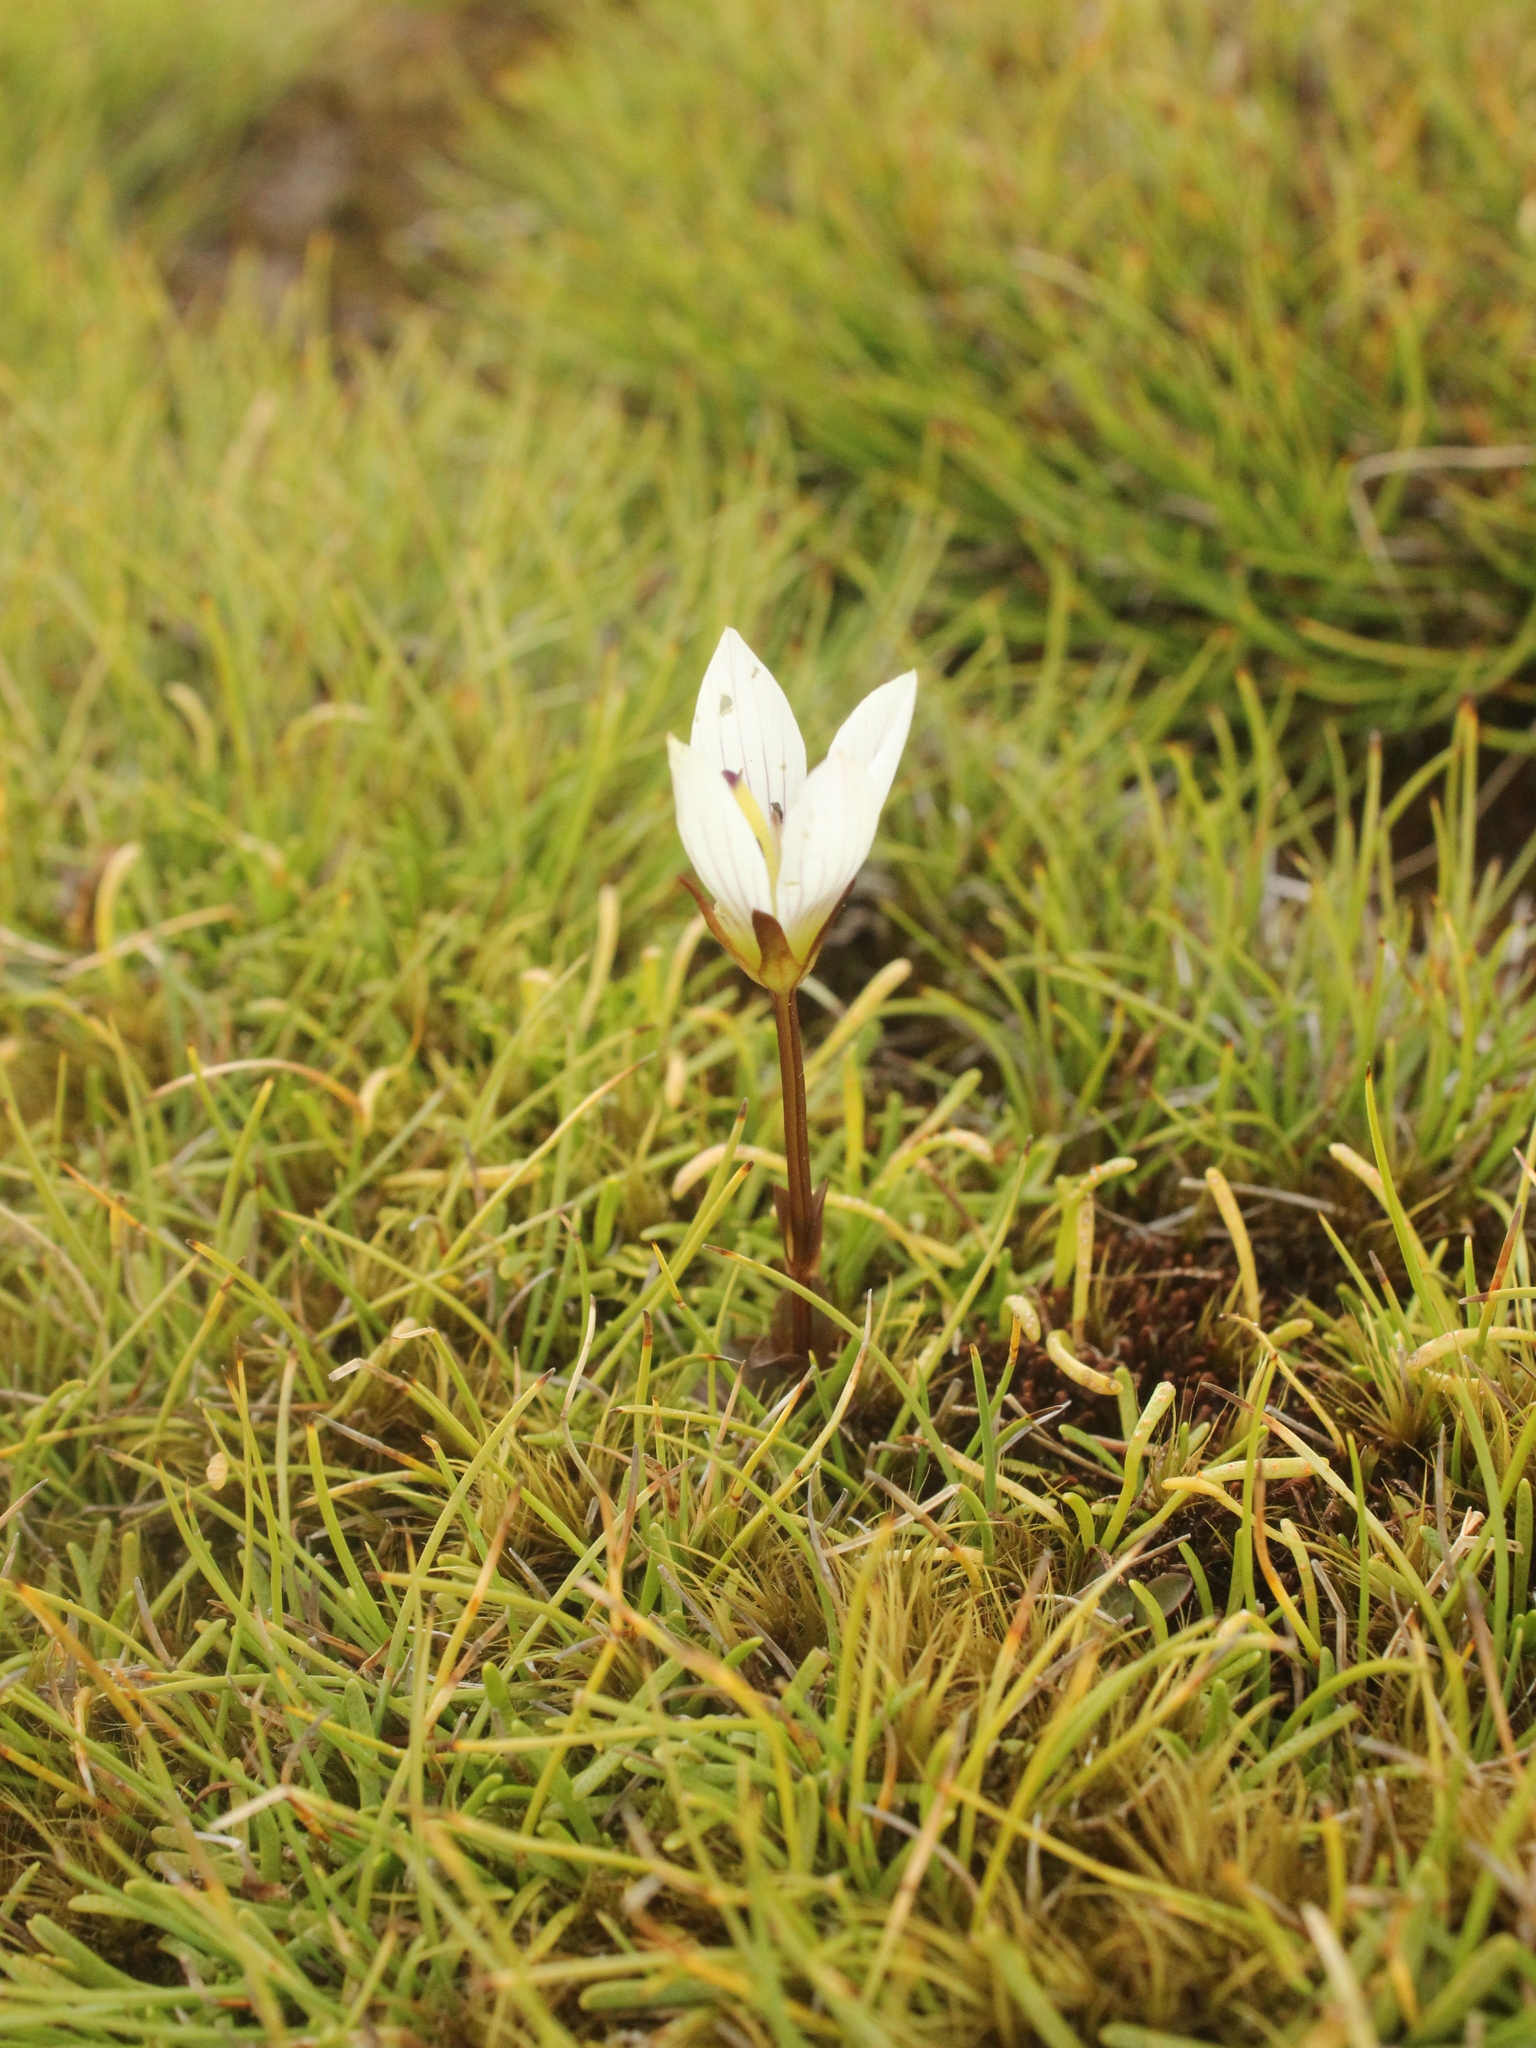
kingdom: Plantae
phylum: Tracheophyta
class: Magnoliopsida
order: Gentianales
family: Gentianaceae
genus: Gentianella
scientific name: Gentianella grisebachii
